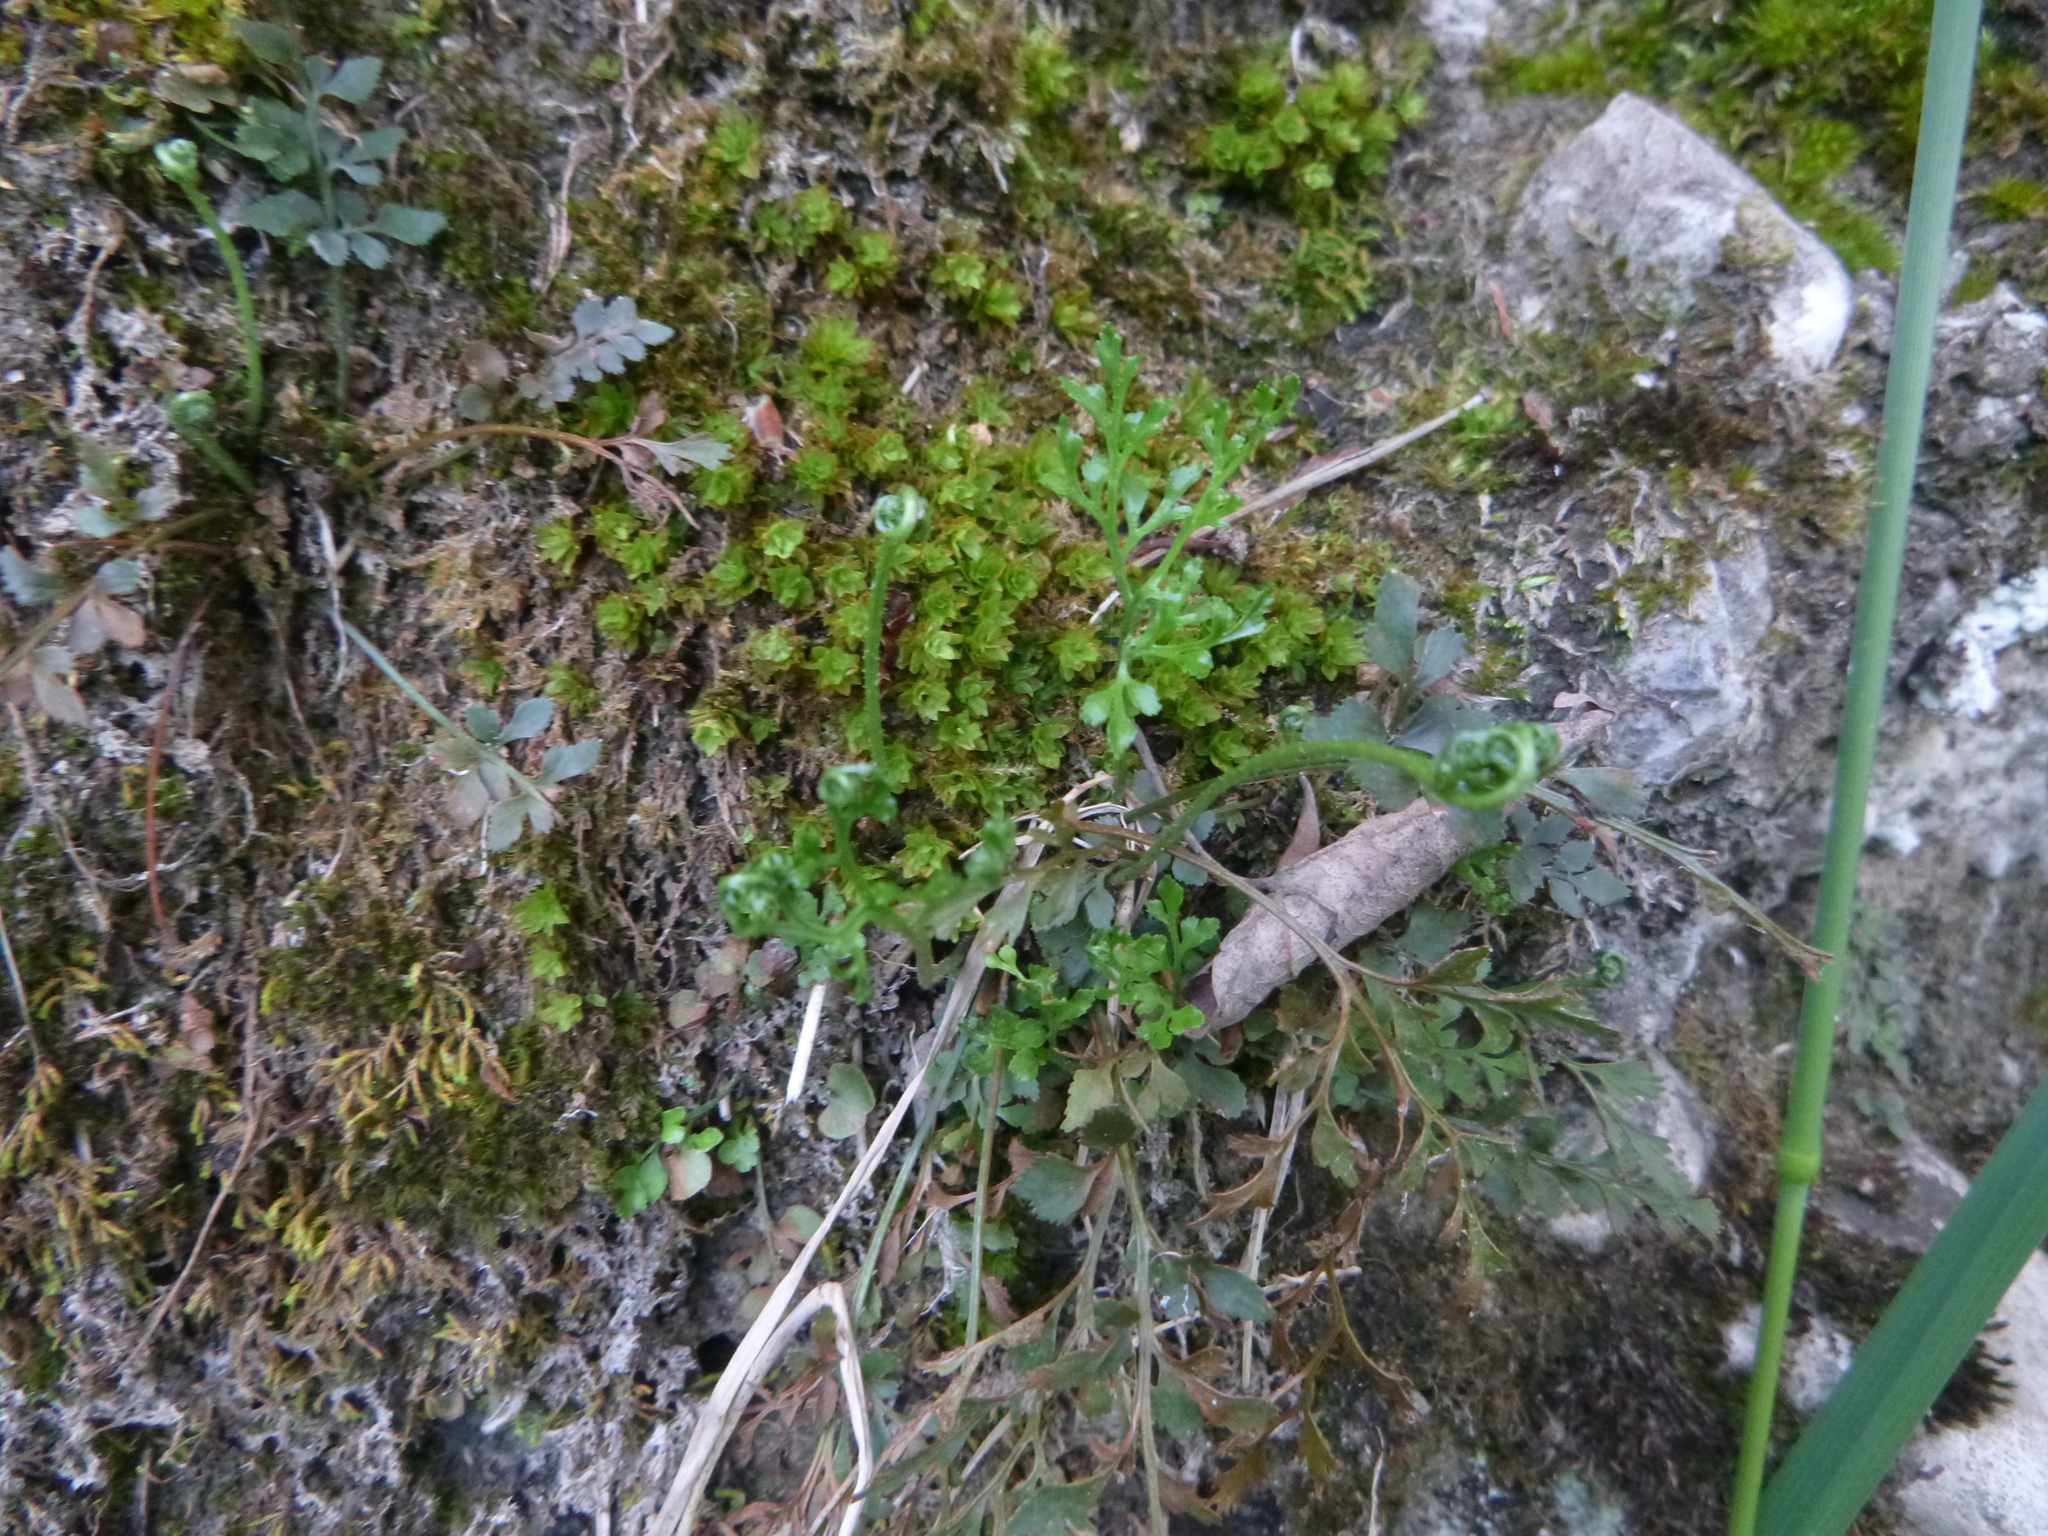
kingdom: Plantae
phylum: Tracheophyta
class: Polypodiopsida
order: Polypodiales
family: Aspleniaceae
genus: Asplenium
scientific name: Asplenium ruta-muraria
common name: Wall-rue
